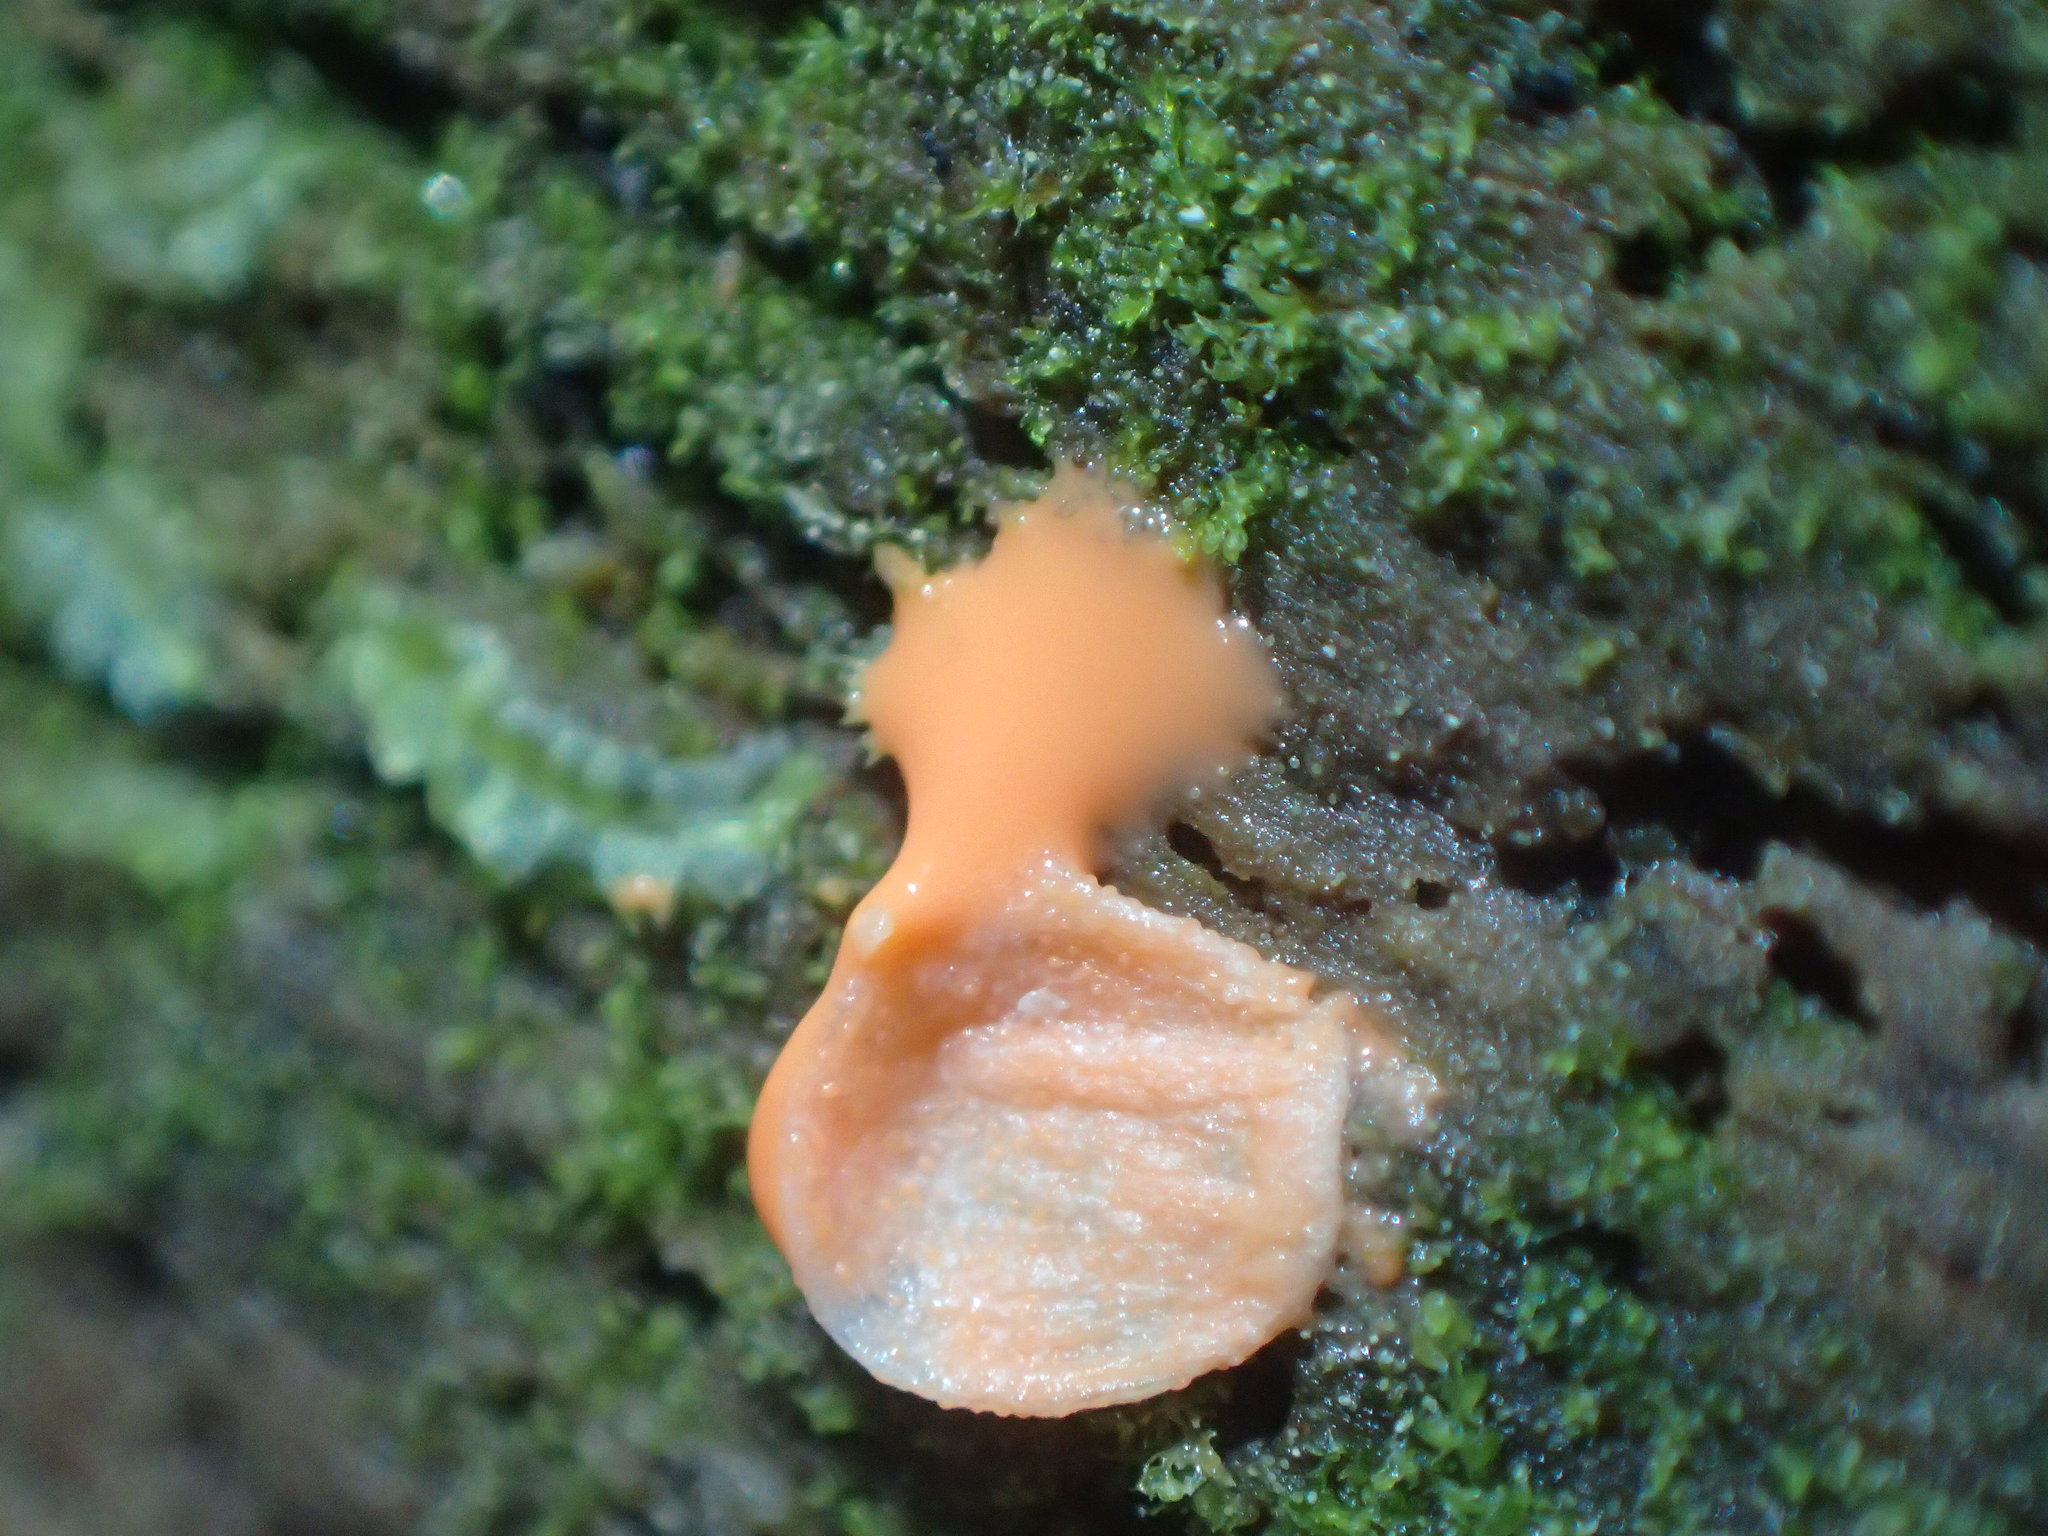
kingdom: Protozoa
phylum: Mycetozoa
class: Myxomycetes
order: Cribrariales
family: Tubiferaceae
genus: Lycogala
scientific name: Lycogala epidendrum
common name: Wolf's milk
